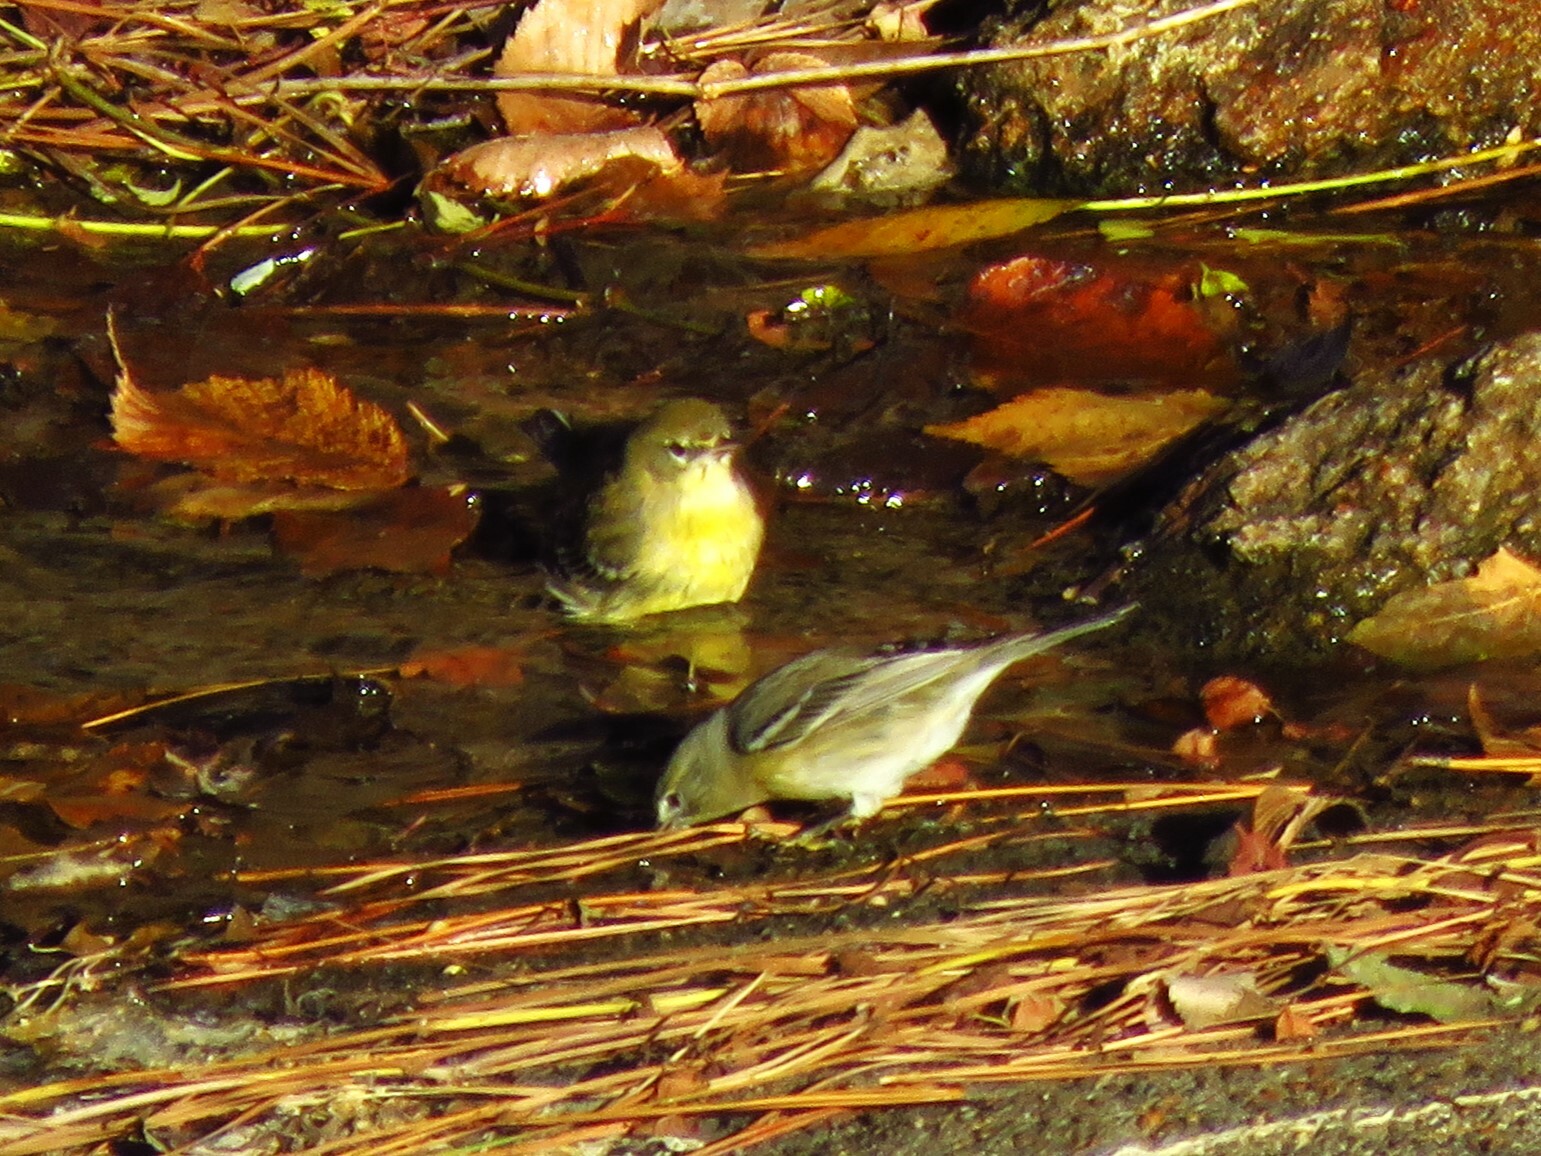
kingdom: Animalia
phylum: Chordata
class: Aves
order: Passeriformes
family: Parulidae
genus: Setophaga
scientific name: Setophaga pinus
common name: Pine warbler
